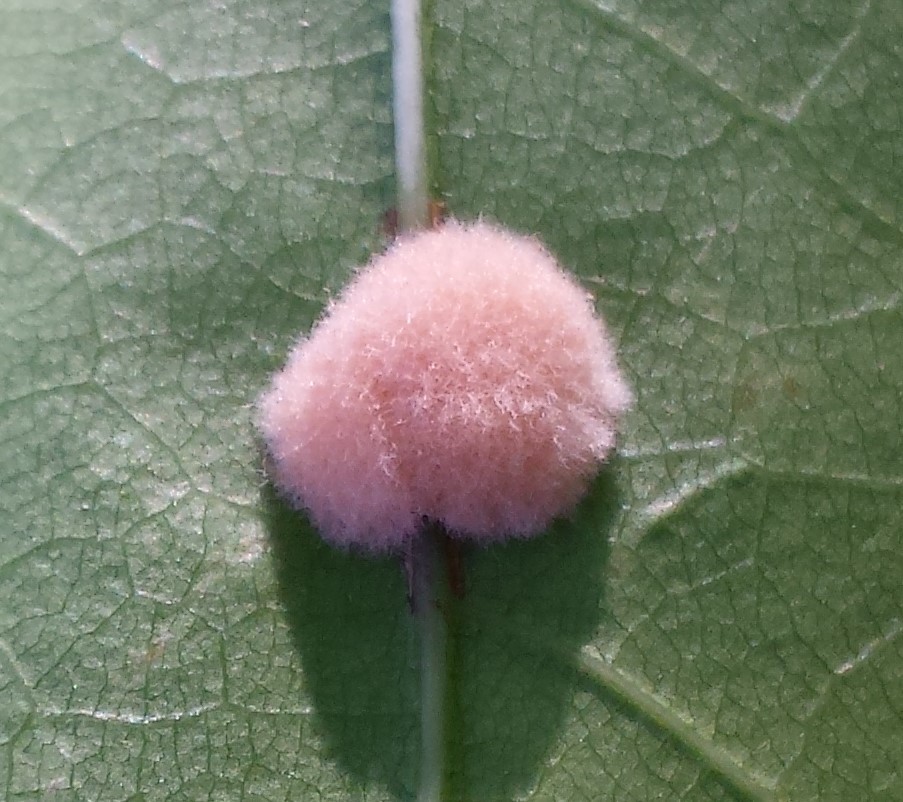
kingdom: Animalia
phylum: Arthropoda
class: Insecta
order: Hymenoptera
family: Cynipidae
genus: Callirhytis
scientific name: Callirhytis
